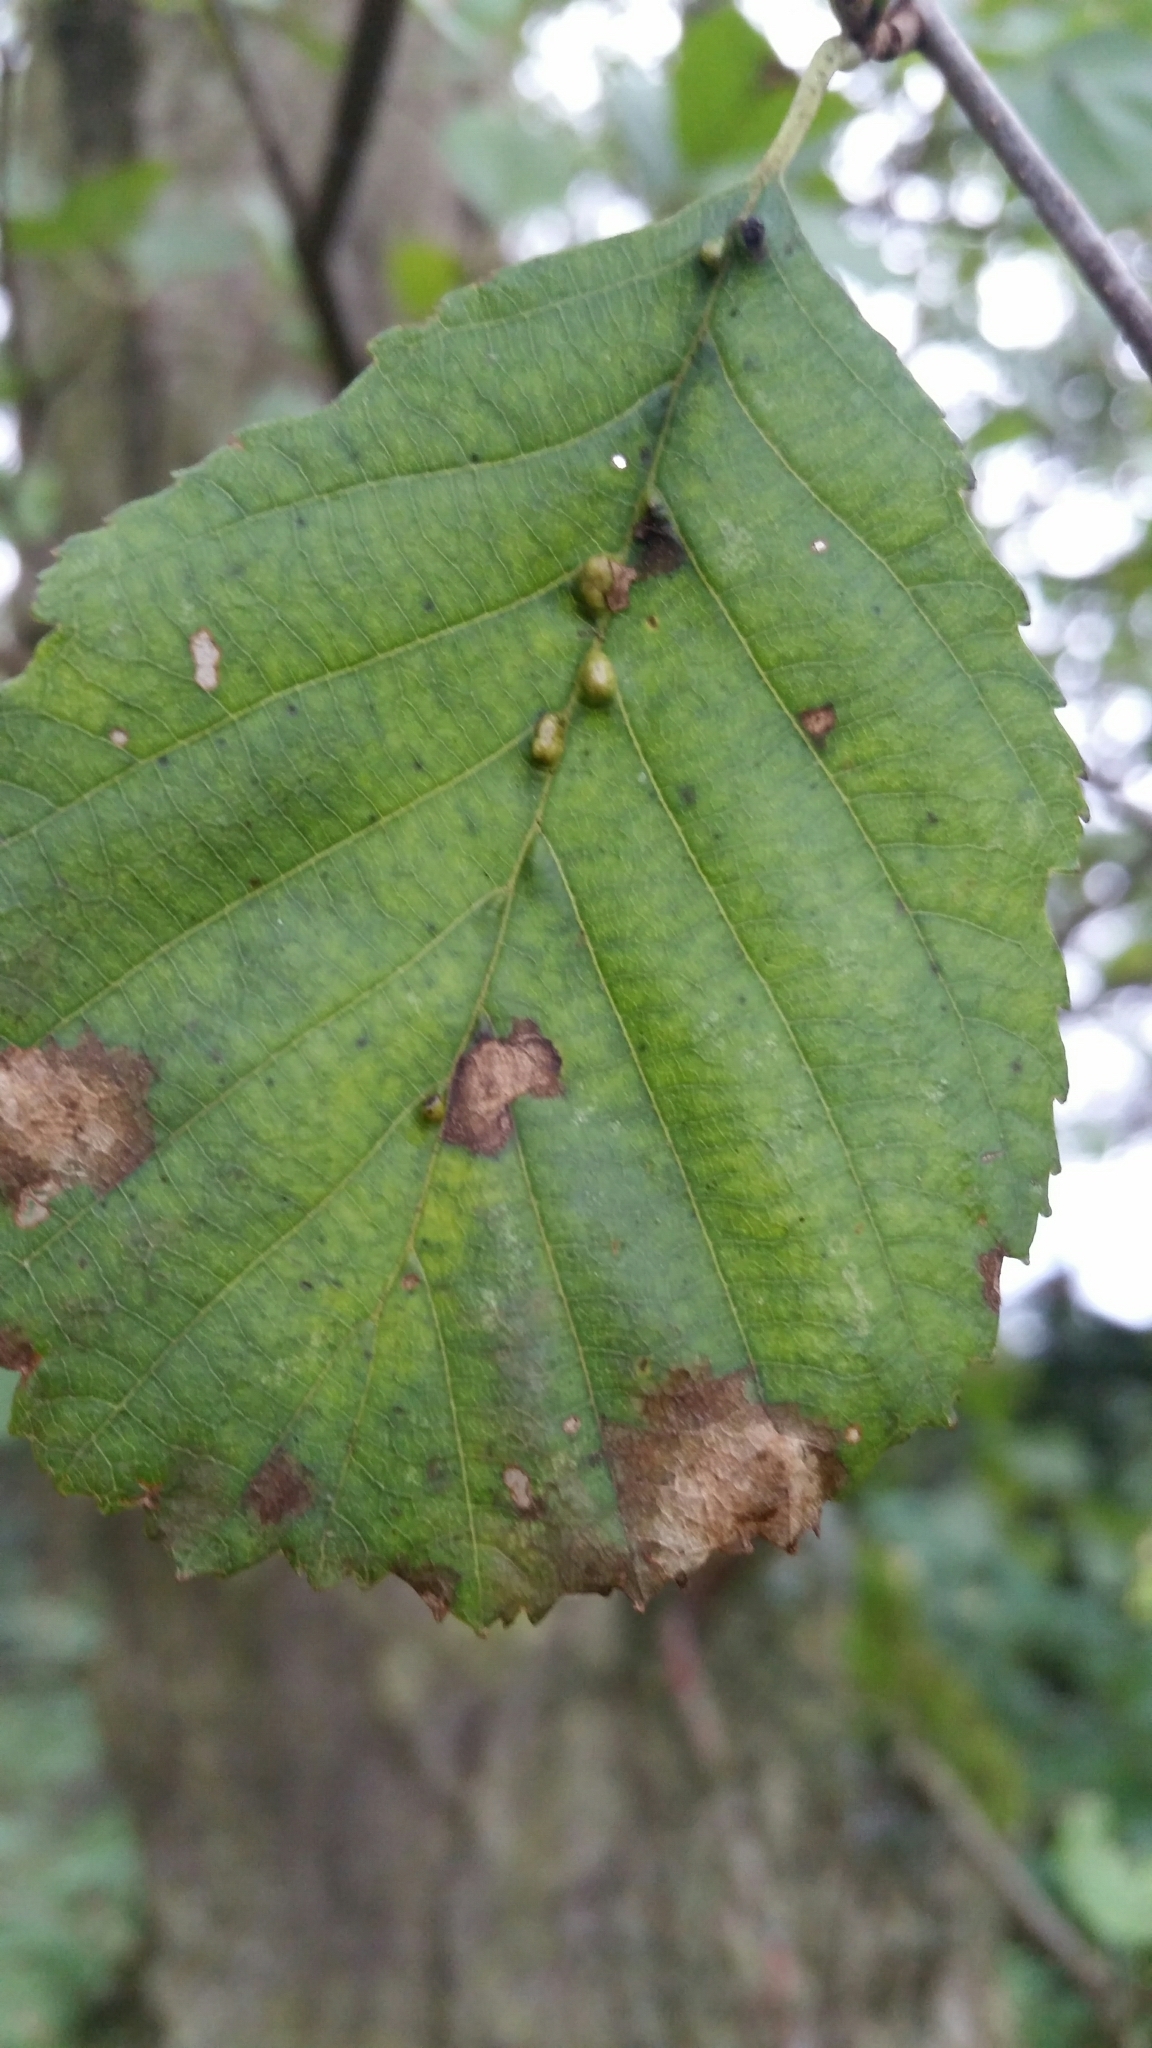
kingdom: Animalia
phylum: Arthropoda
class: Arachnida
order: Trombidiformes
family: Eriophyidae
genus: Eriophyes
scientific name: Eriophyes inangulis
